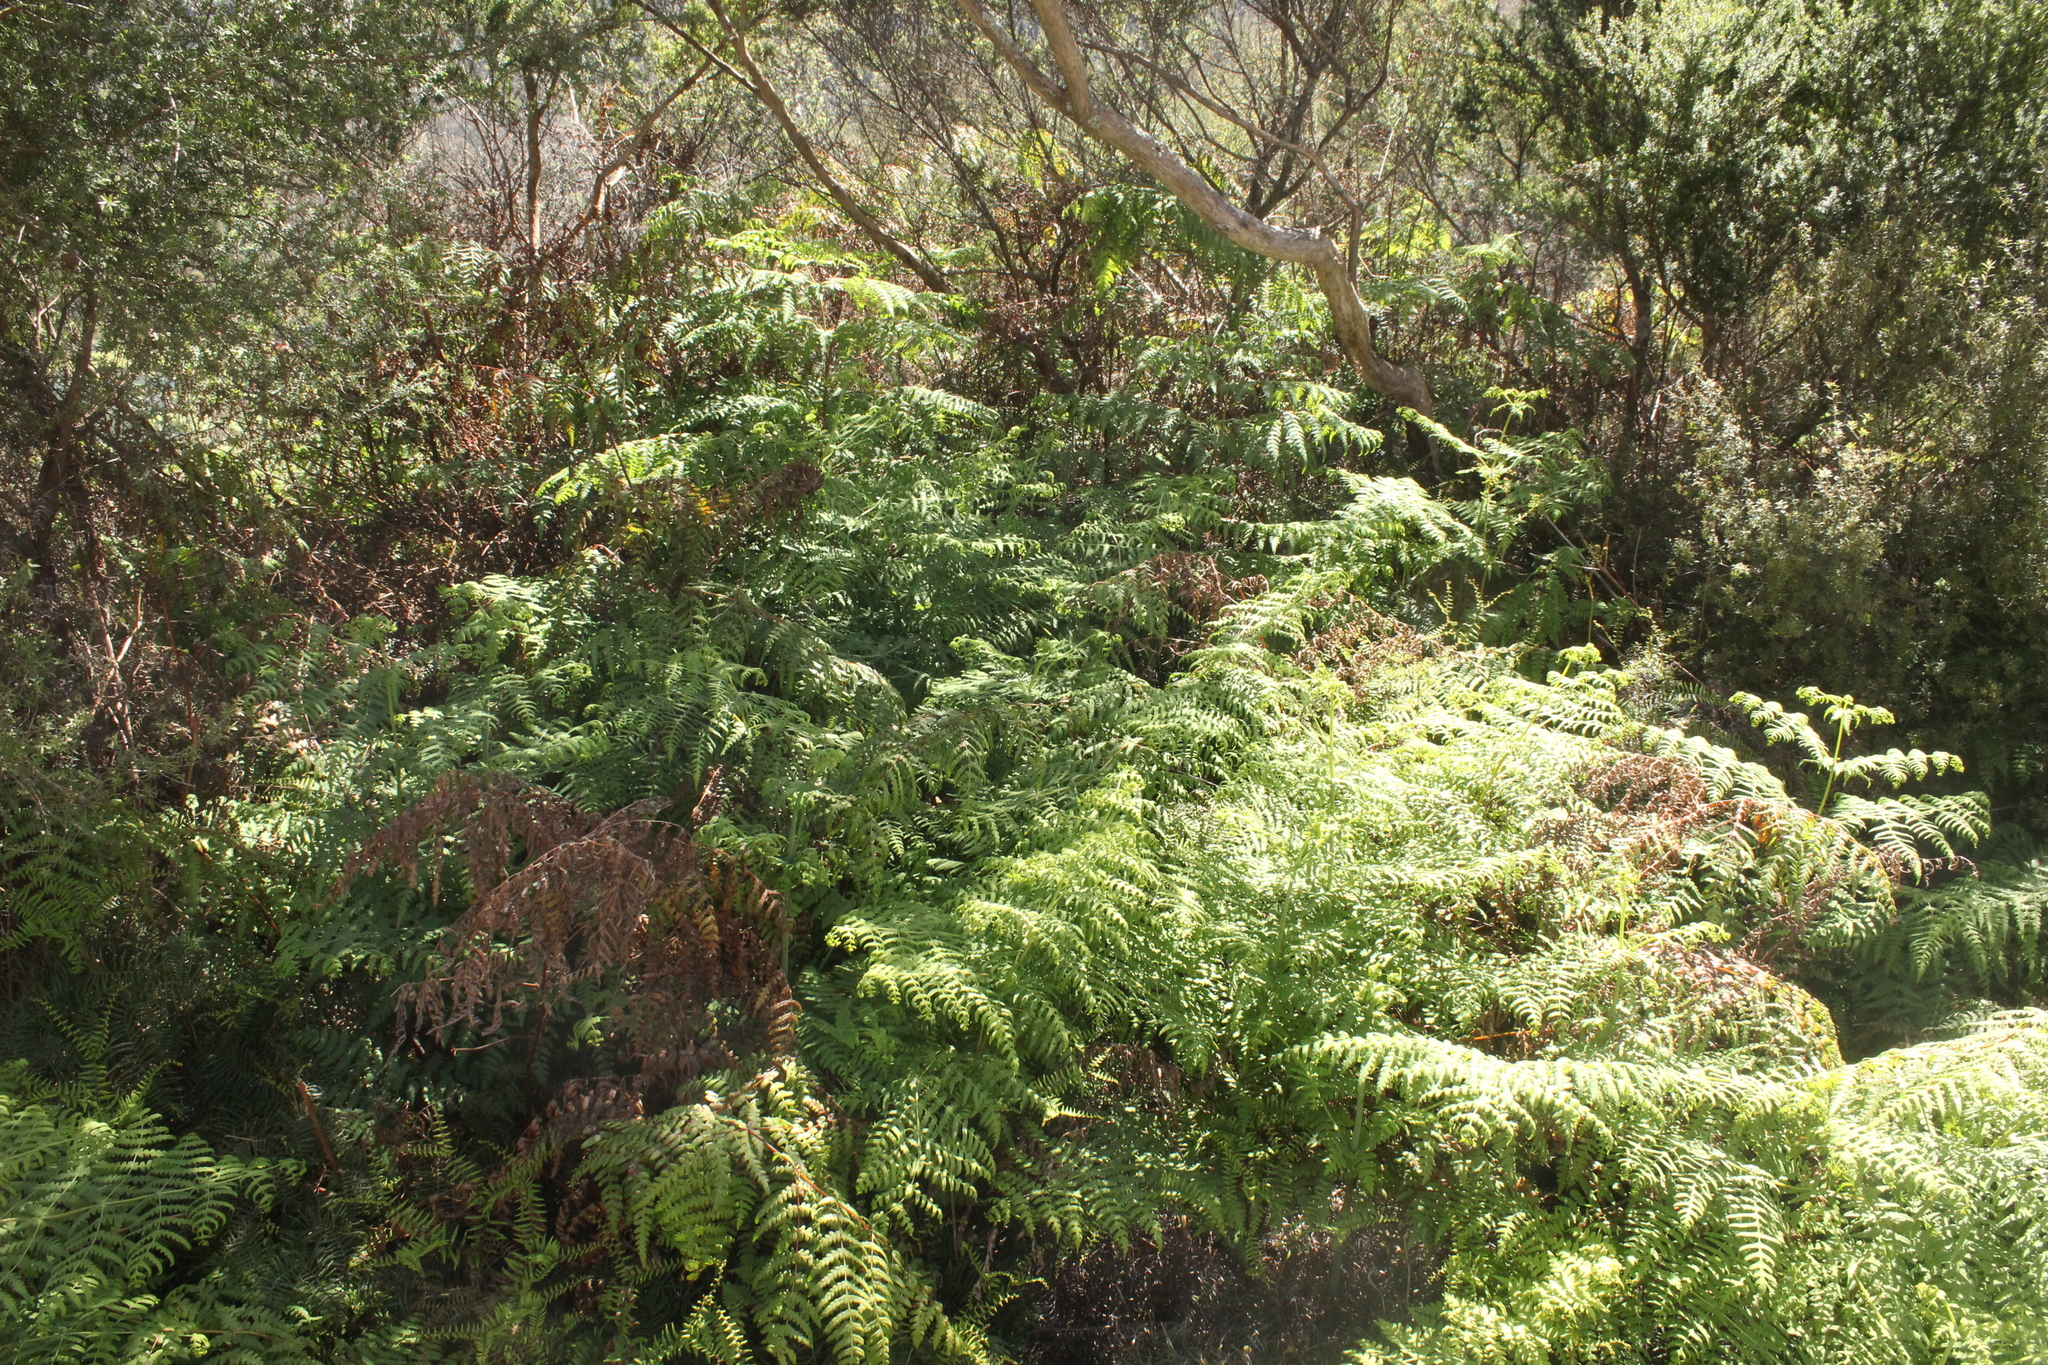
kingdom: Plantae
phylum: Tracheophyta
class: Polypodiopsida
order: Polypodiales
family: Dennstaedtiaceae
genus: Histiopteris
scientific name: Histiopteris incisa
